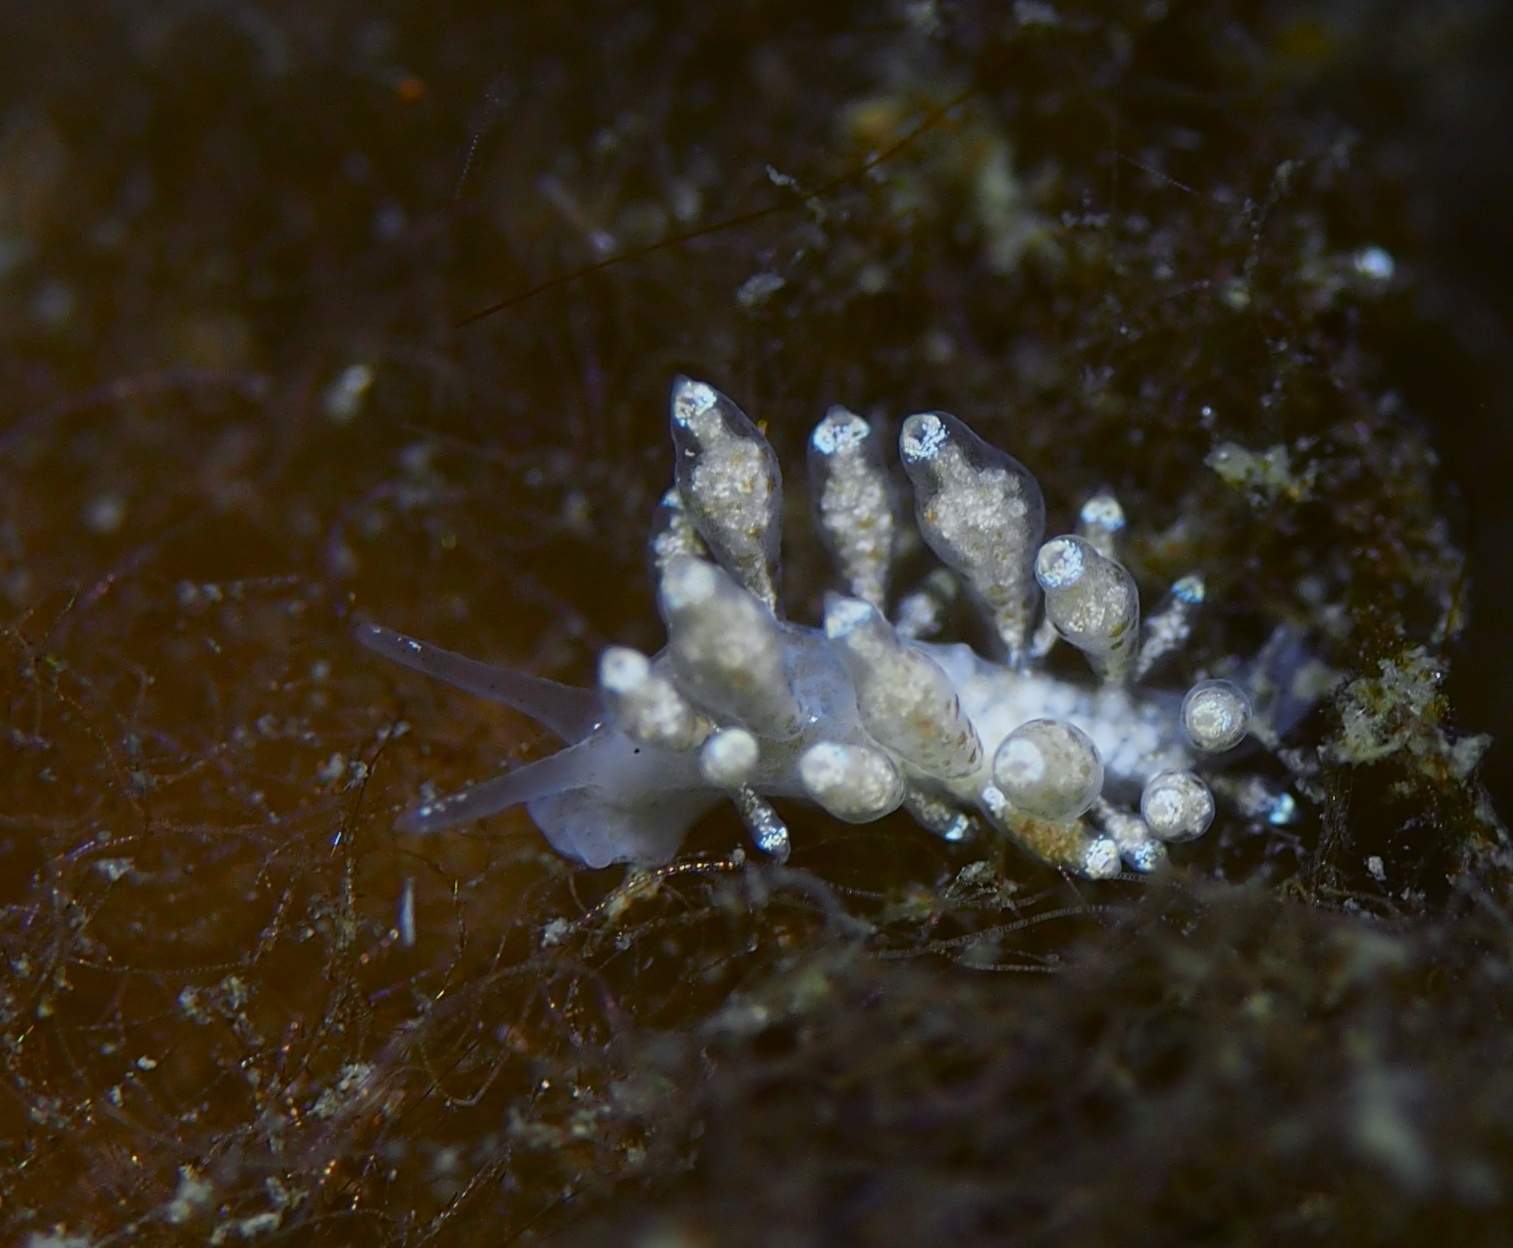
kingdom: Animalia
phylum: Mollusca
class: Gastropoda
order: Nudibranchia
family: Eubranchidae
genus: Eubranchus
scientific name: Eubranchus exiguus
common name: Balloon aeolis
